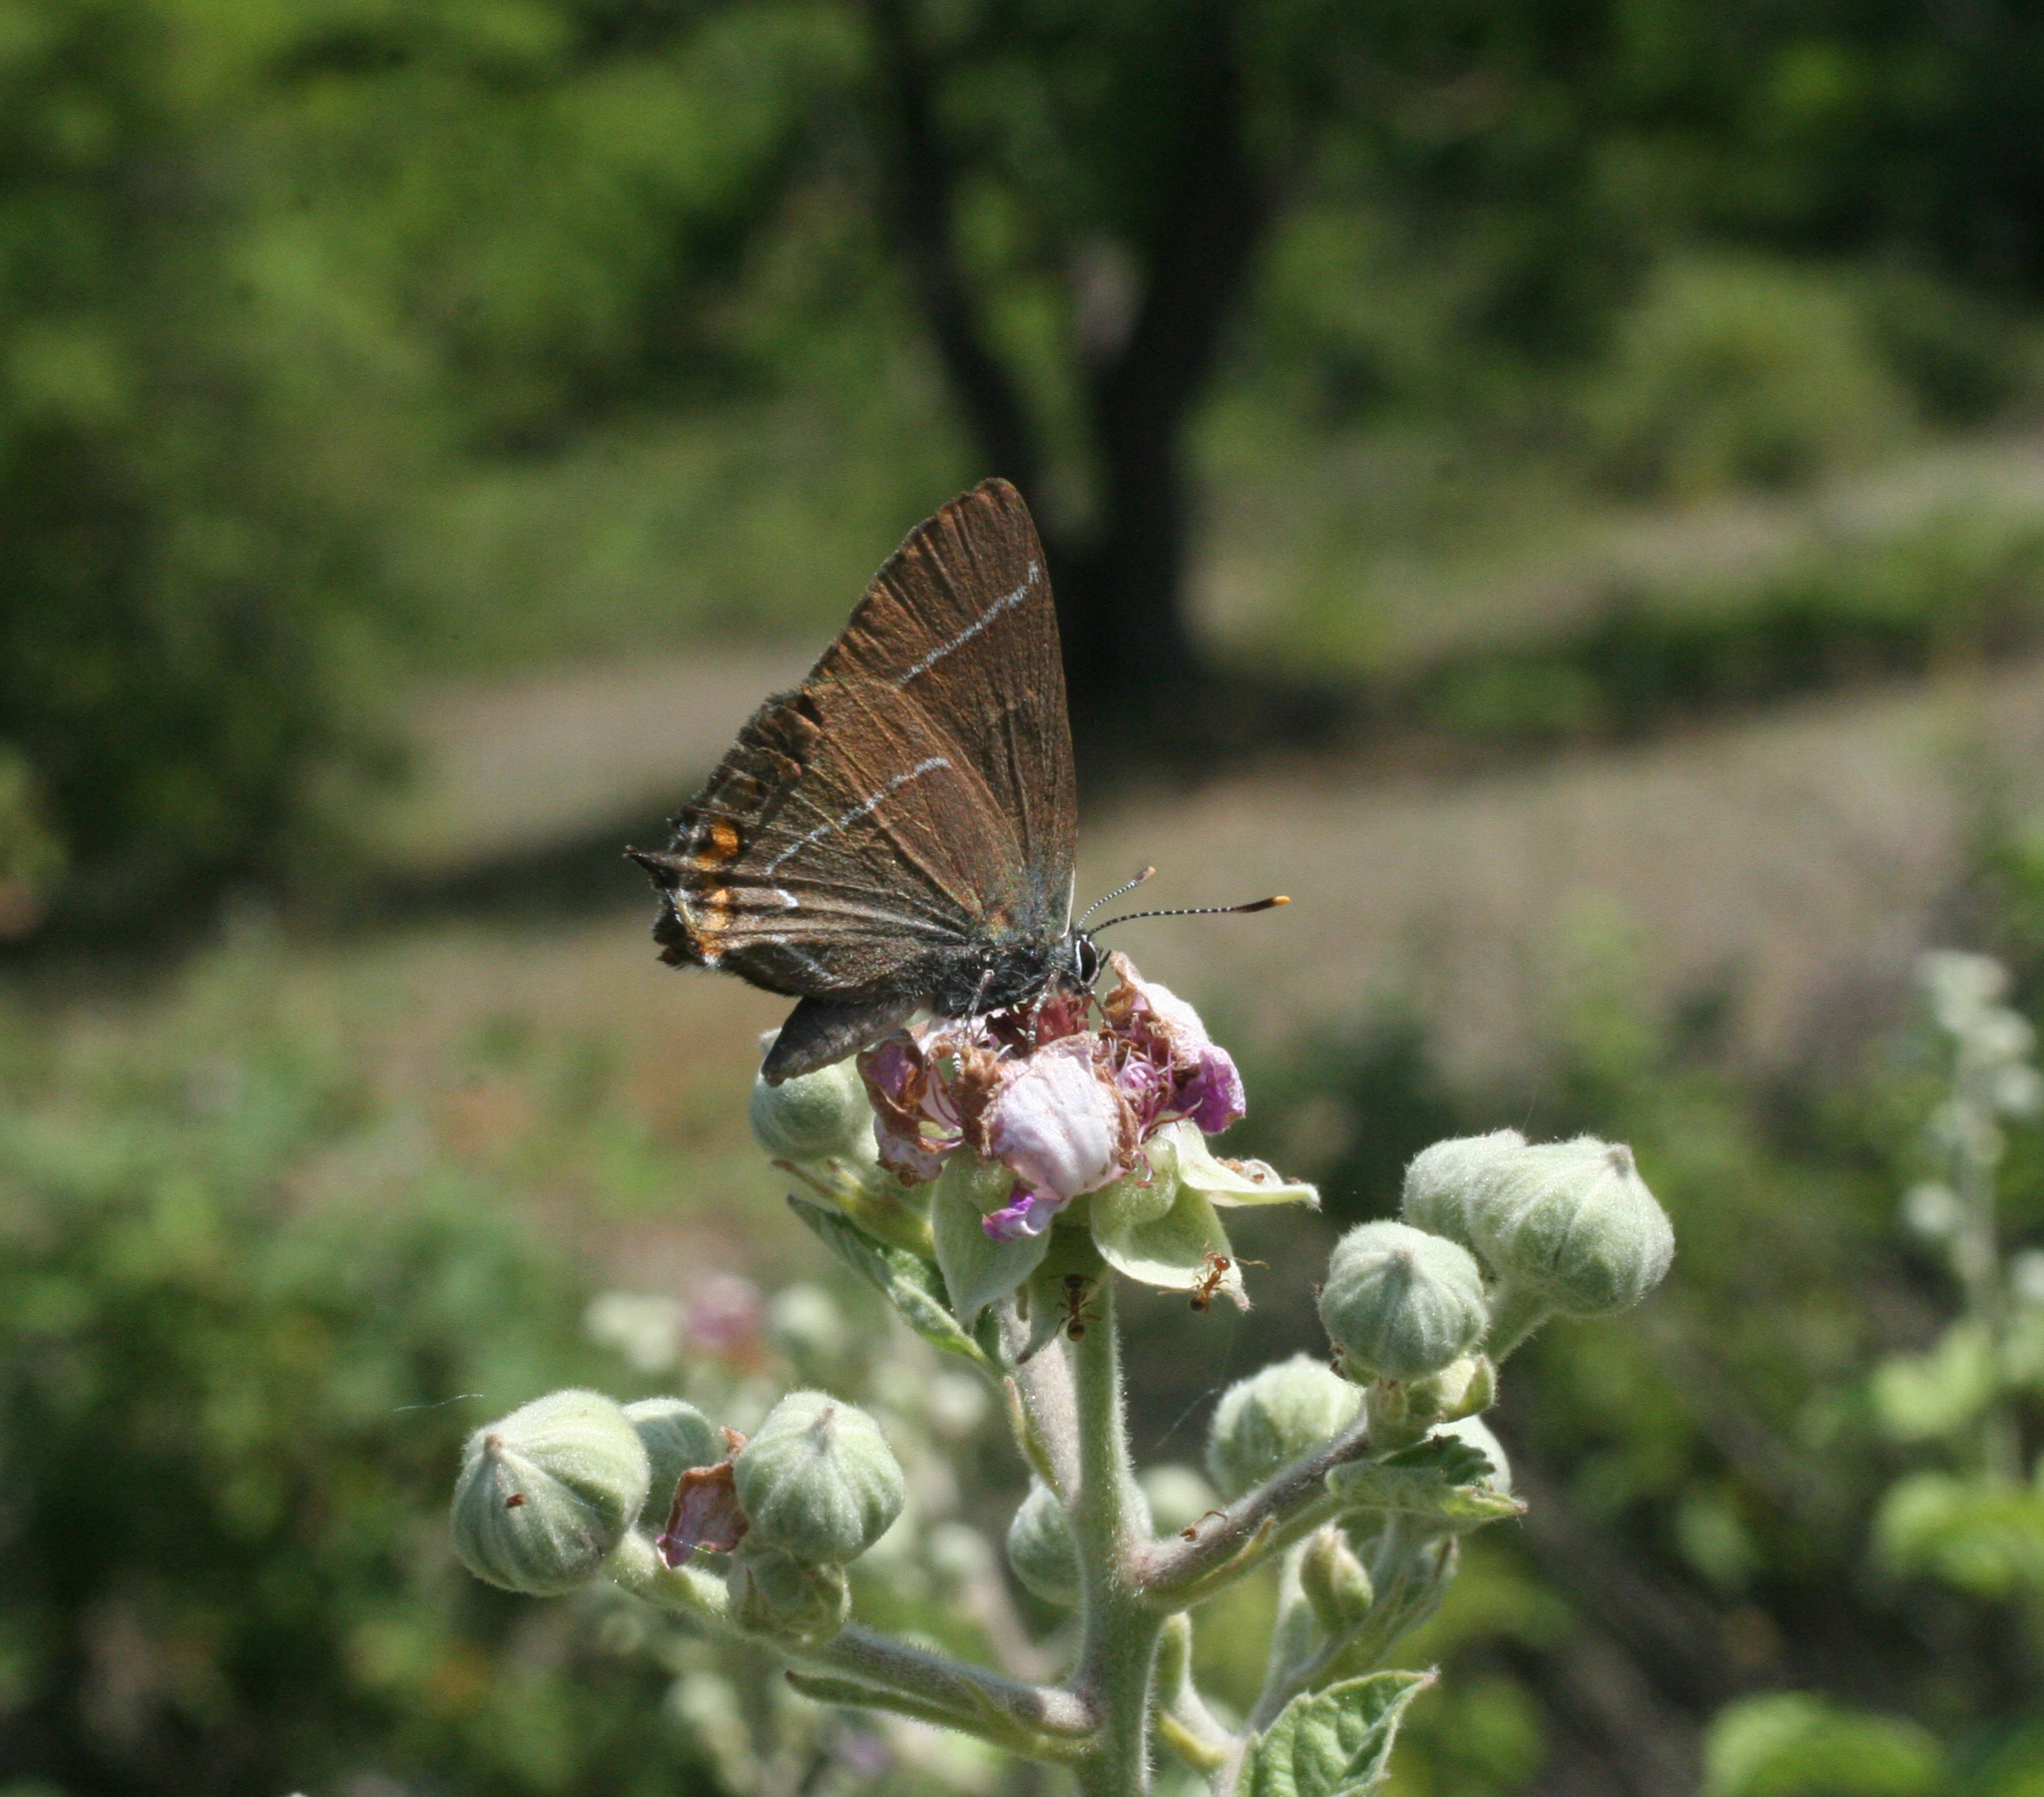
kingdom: Animalia
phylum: Arthropoda
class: Insecta
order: Lepidoptera
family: Lycaenidae
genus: Satyrium
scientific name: Satyrium w-album
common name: White-letter hairstreak
